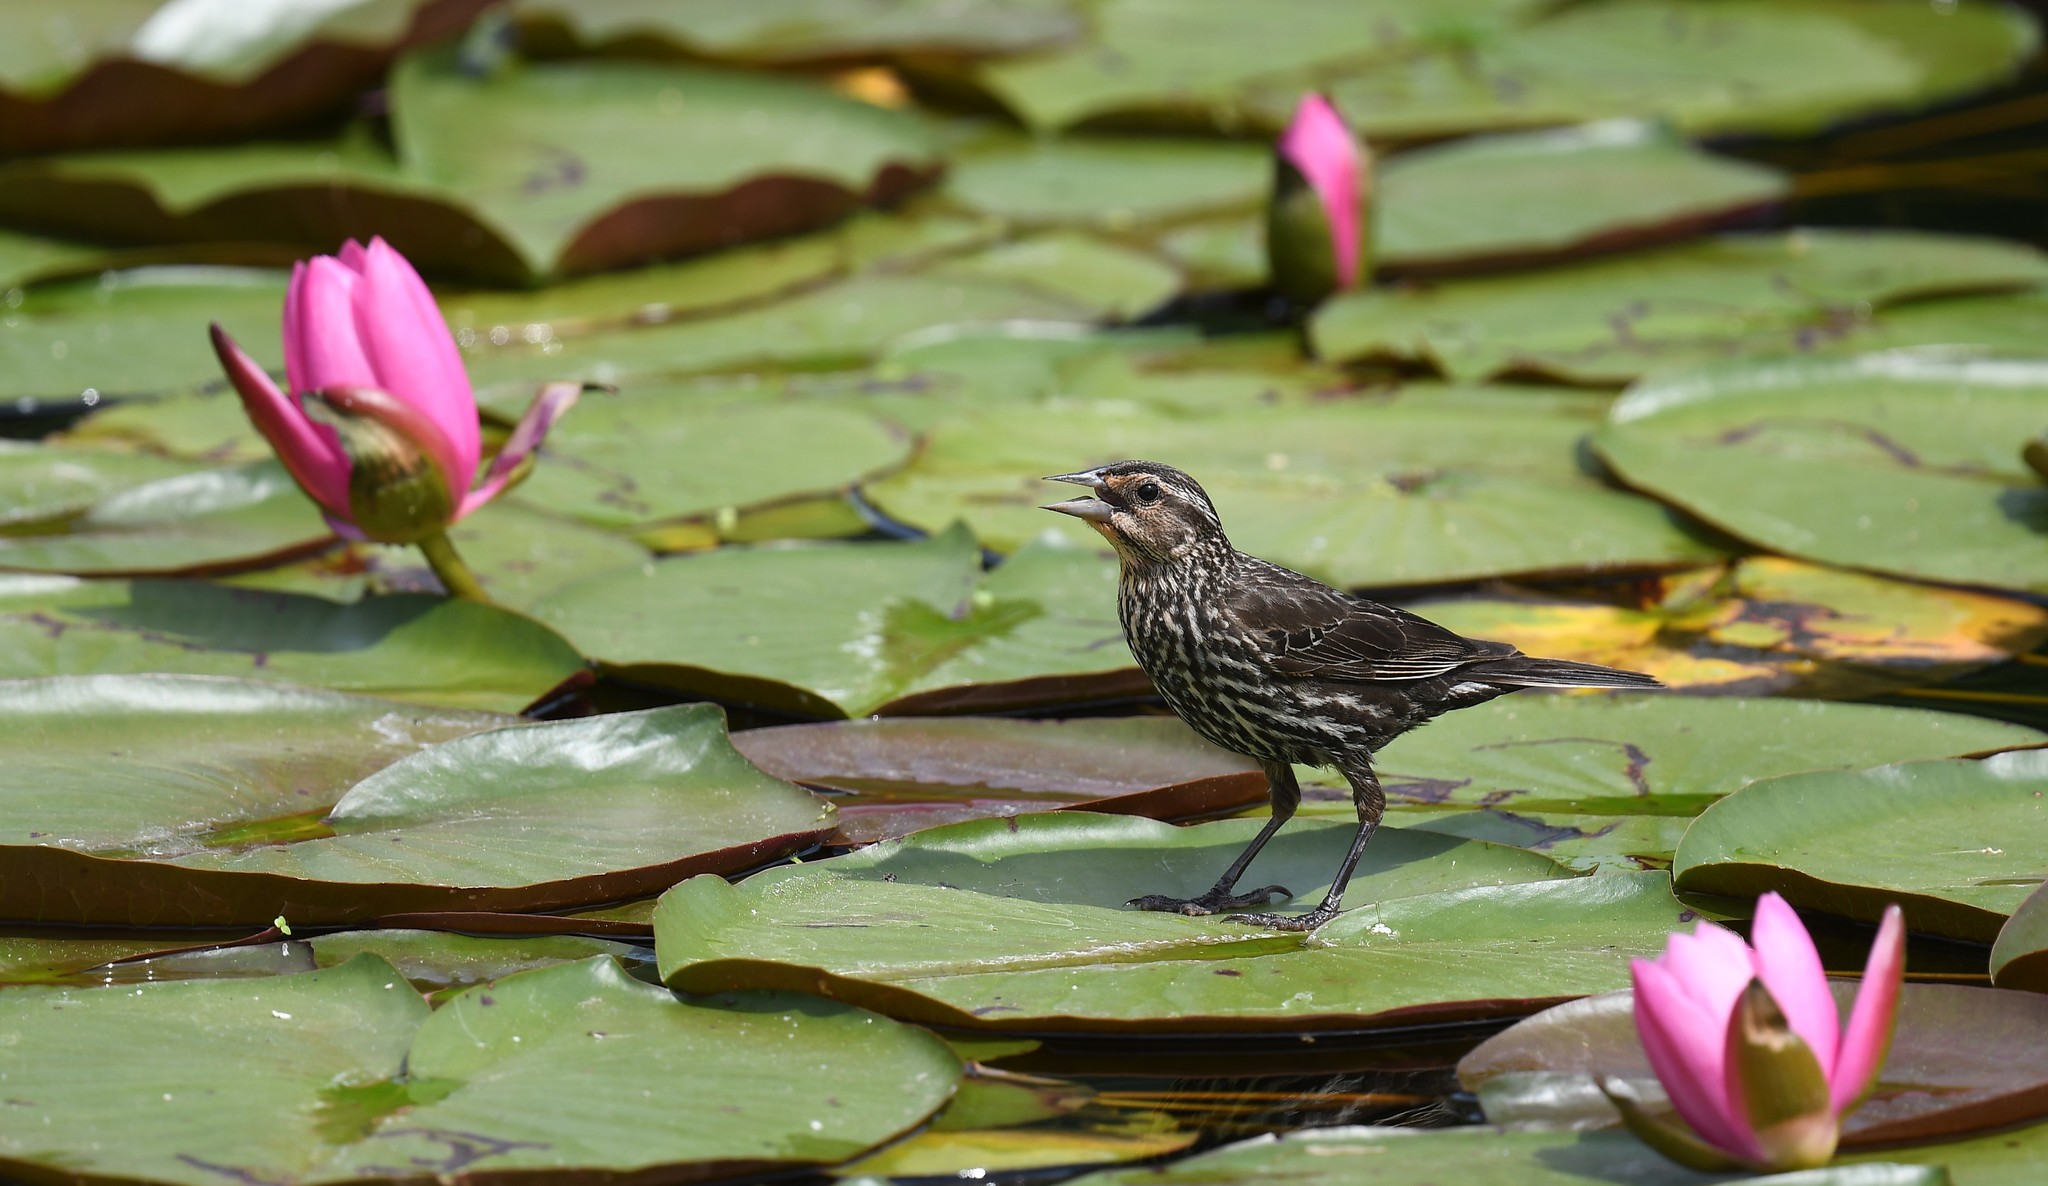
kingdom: Animalia
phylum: Chordata
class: Aves
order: Passeriformes
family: Icteridae
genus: Agelaius
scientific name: Agelaius phoeniceus
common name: Red-winged blackbird
